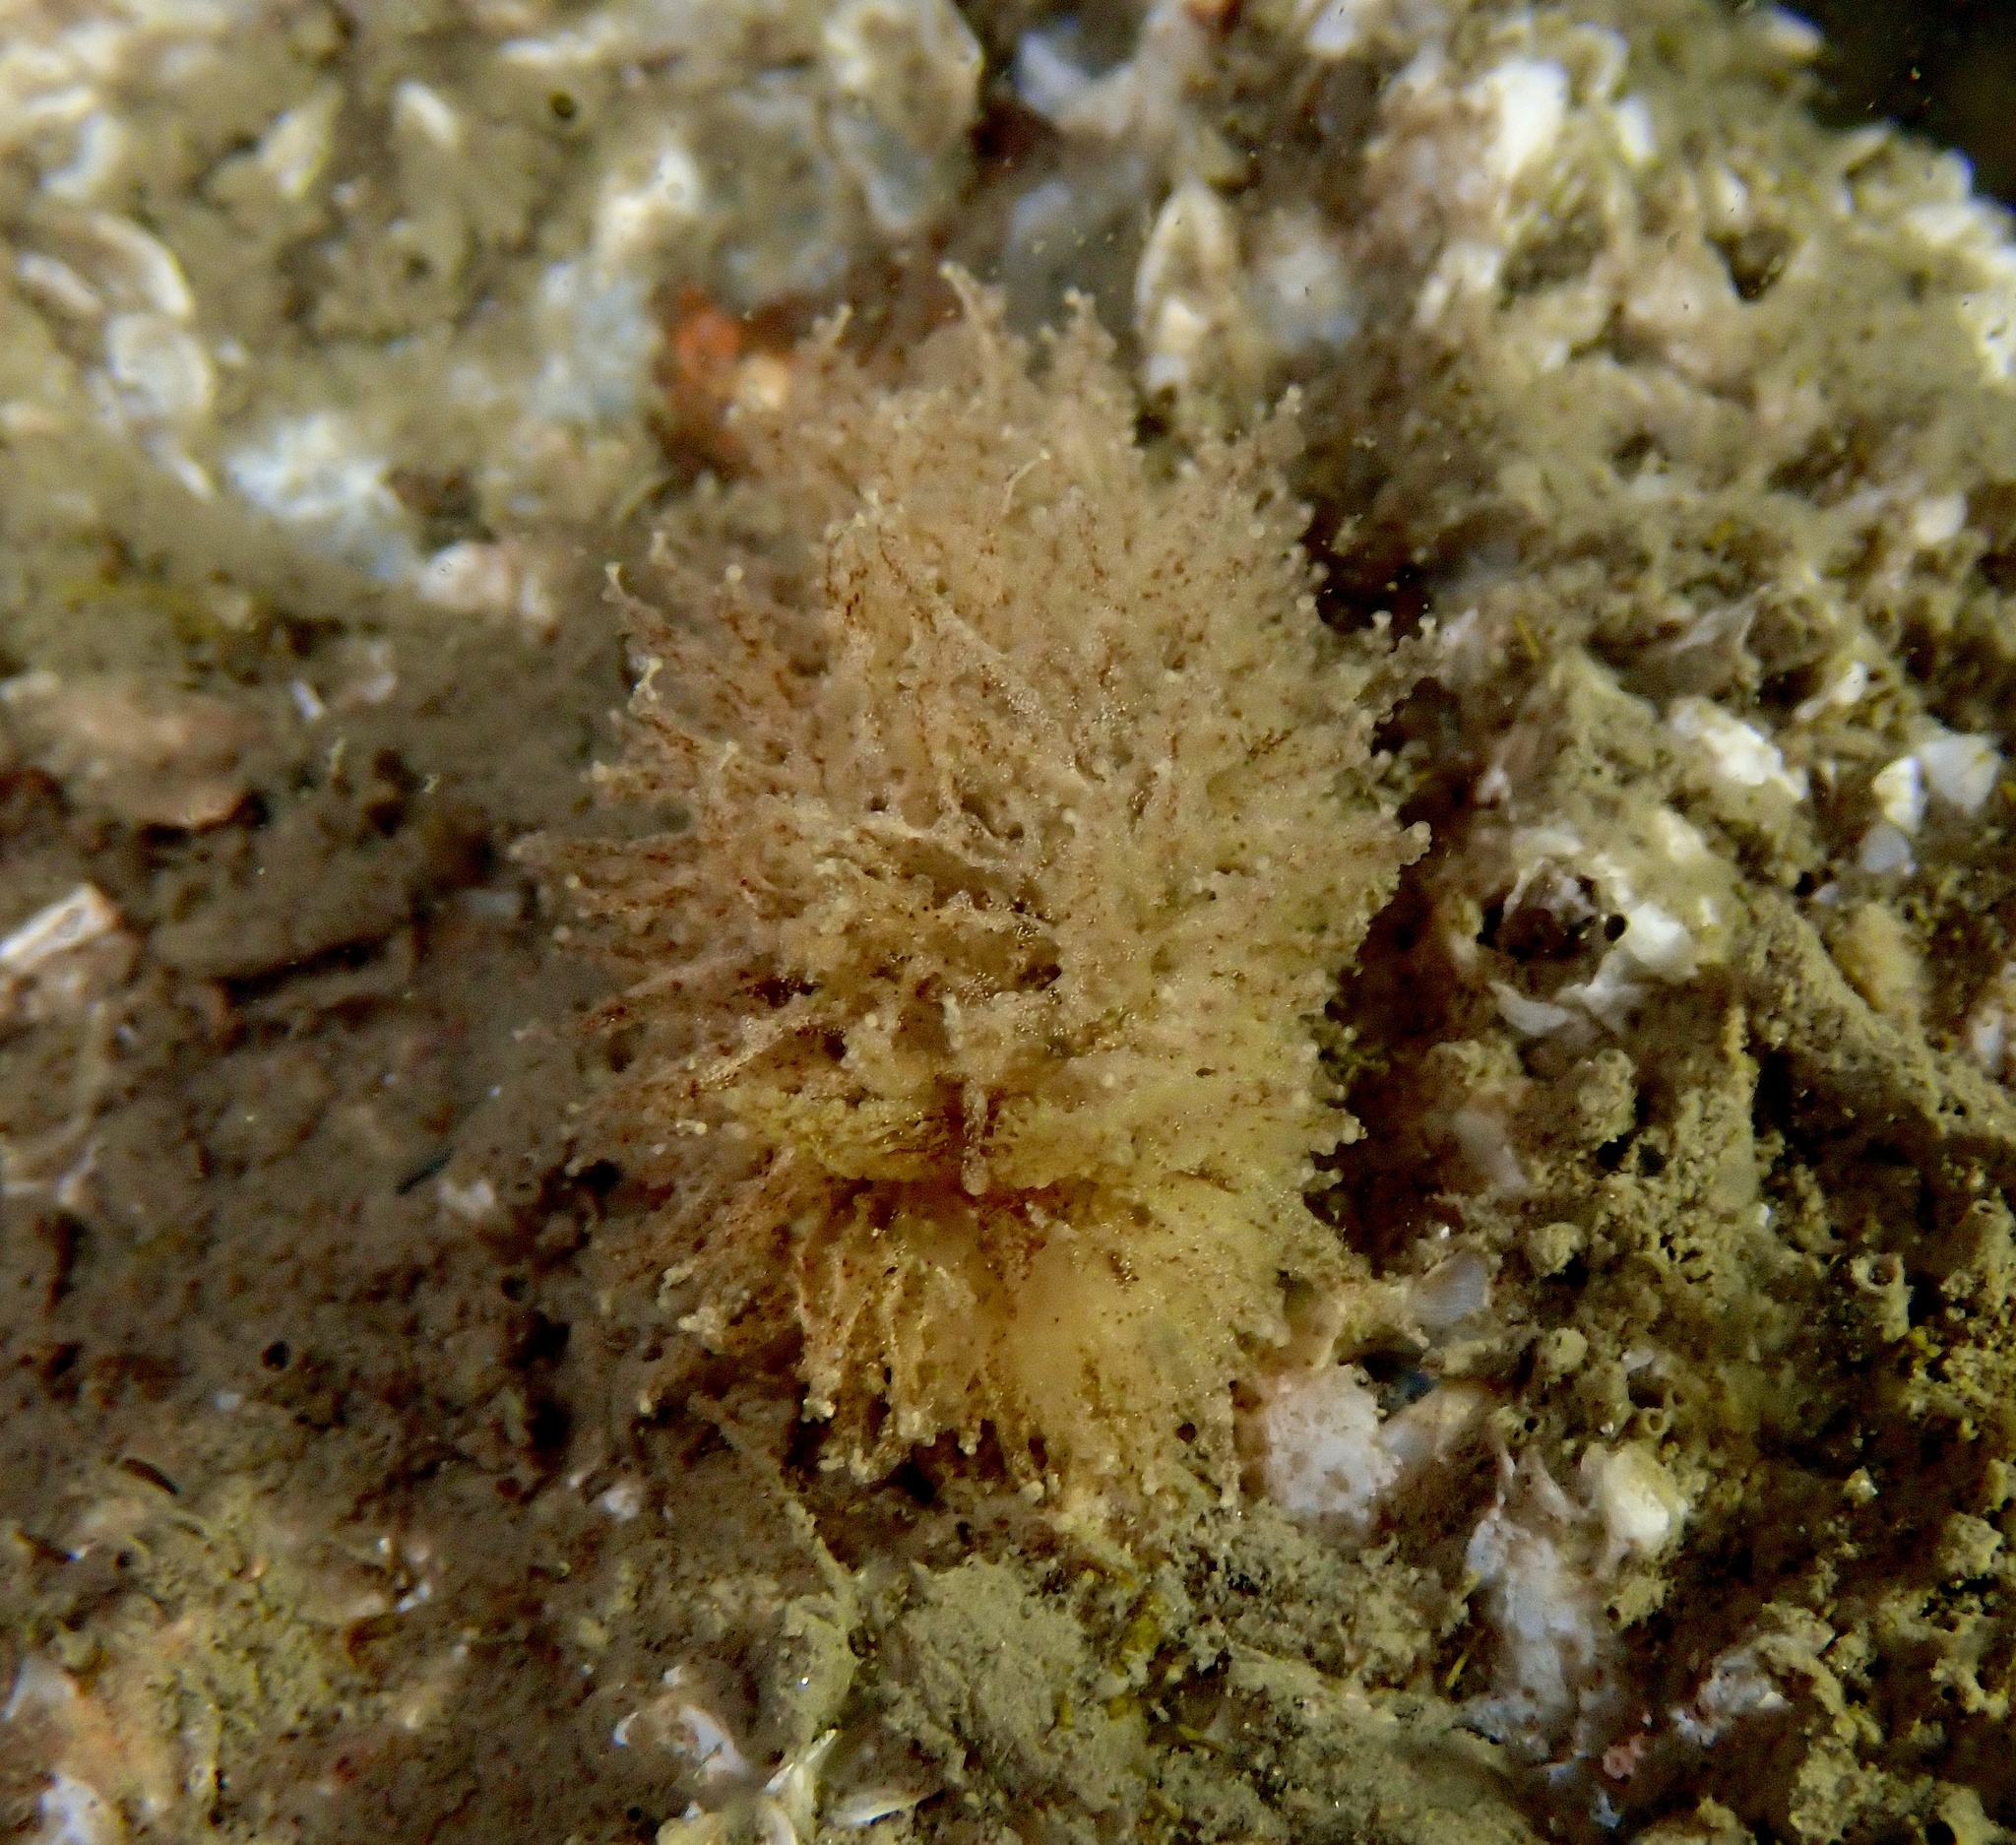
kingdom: Animalia
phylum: Mollusca
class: Gastropoda
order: Nudibranchia
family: Janolidae
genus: Janolus
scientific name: Janolus hyalinus
